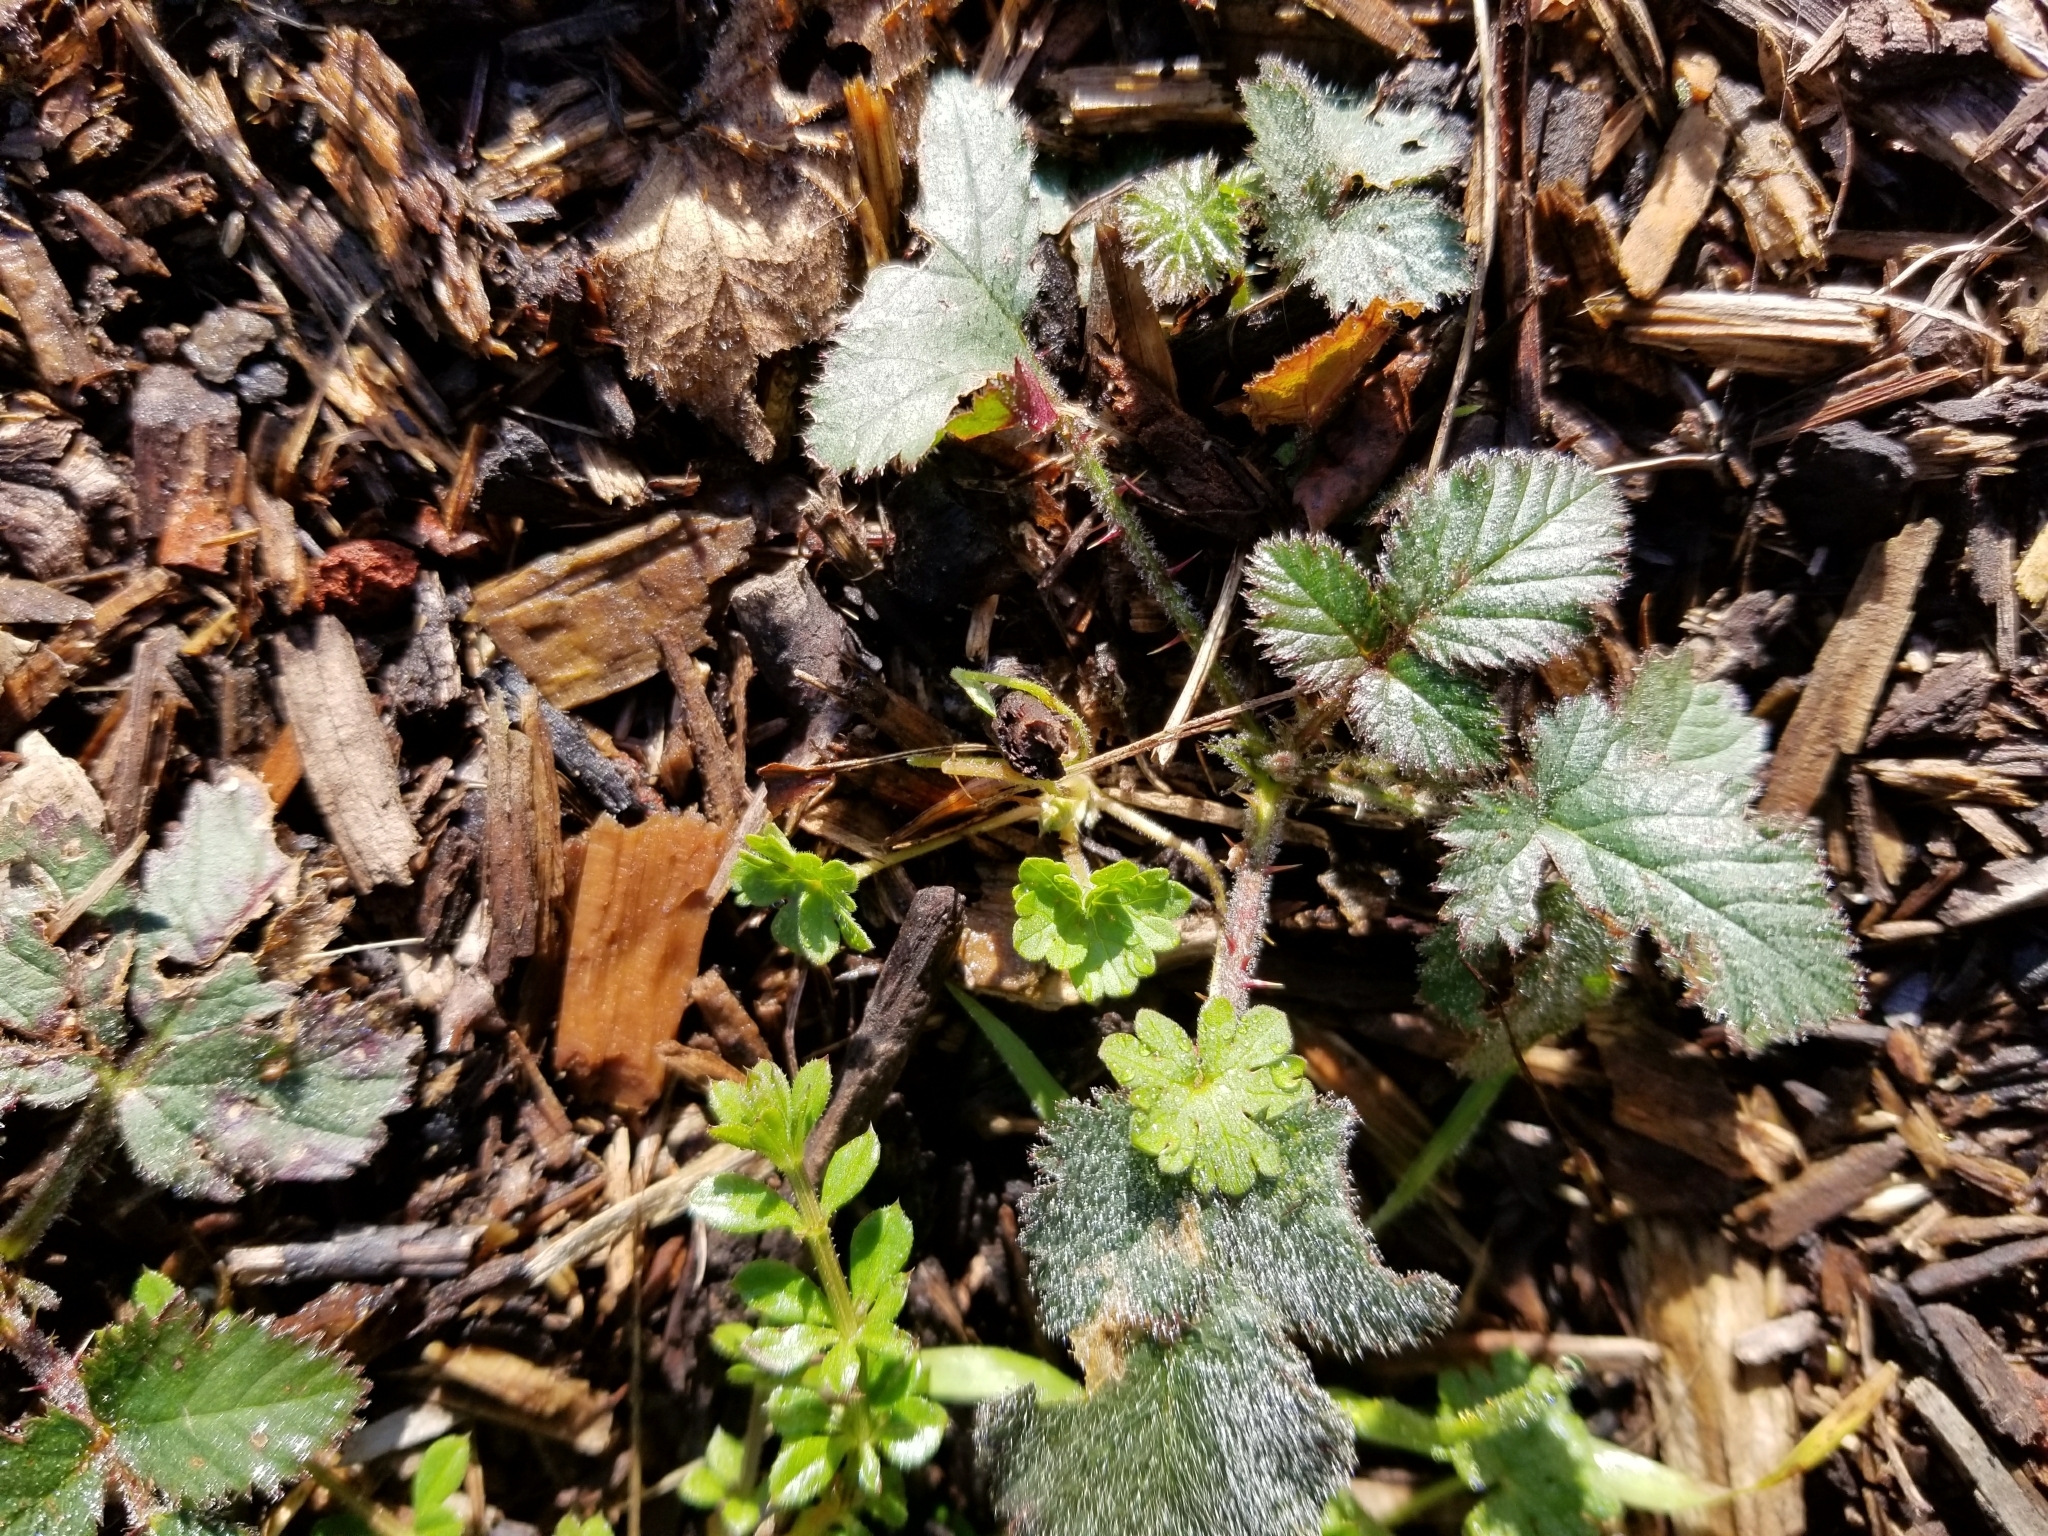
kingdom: Plantae
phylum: Tracheophyta
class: Magnoliopsida
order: Rosales
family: Rosaceae
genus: Rubus
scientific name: Rubus armeniacus
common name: Himalayan blackberry
